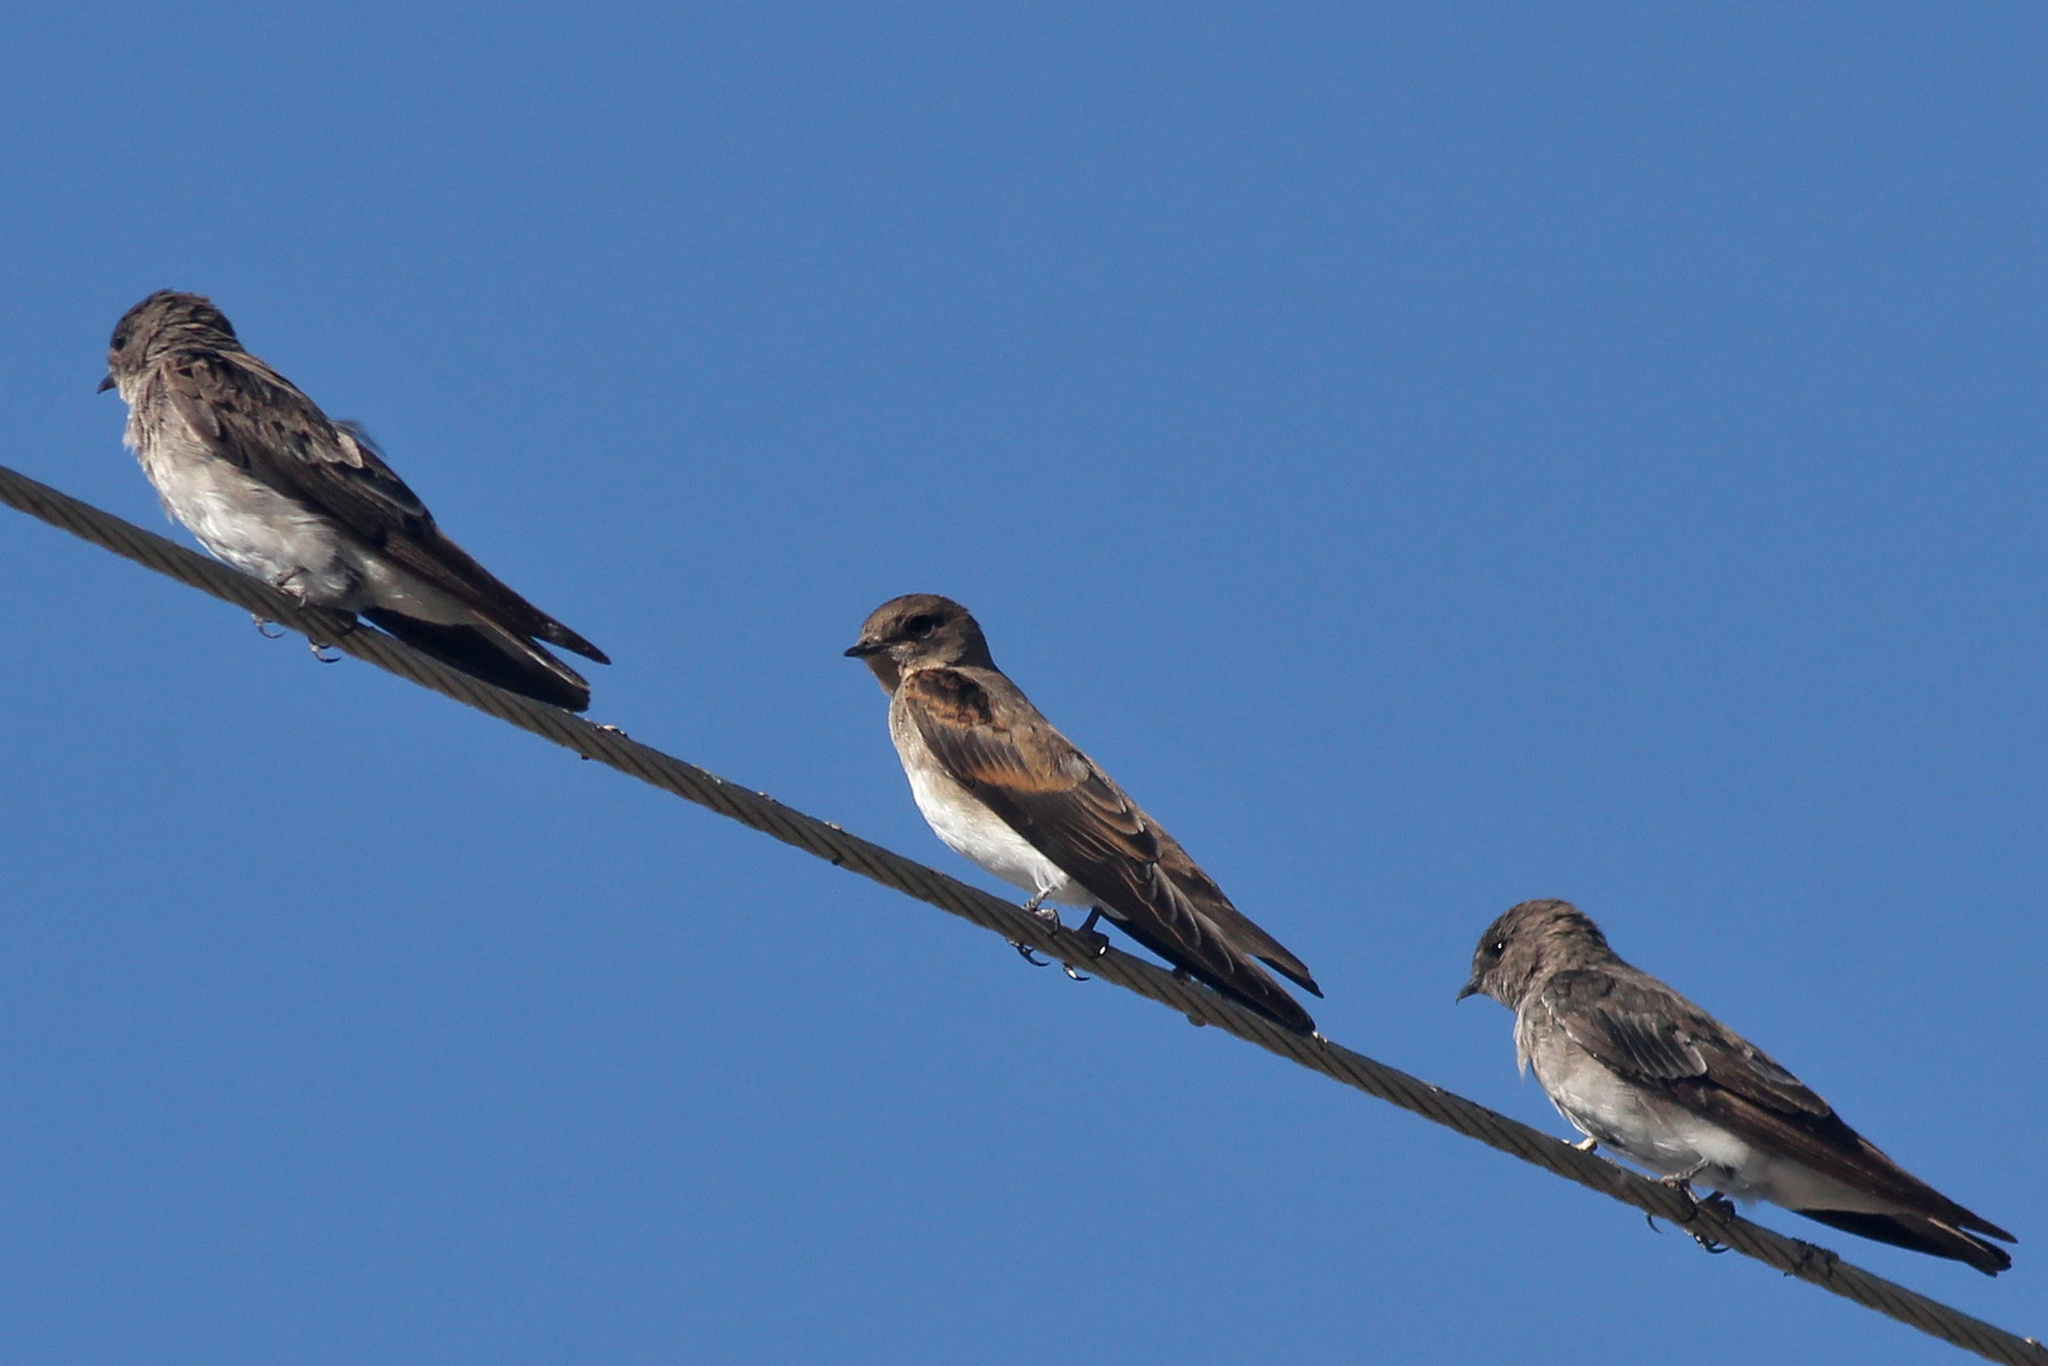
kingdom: Animalia
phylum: Chordata
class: Aves
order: Passeriformes
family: Hirundinidae
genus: Stelgidopteryx
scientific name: Stelgidopteryx serripennis
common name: Northern rough-winged swallow
